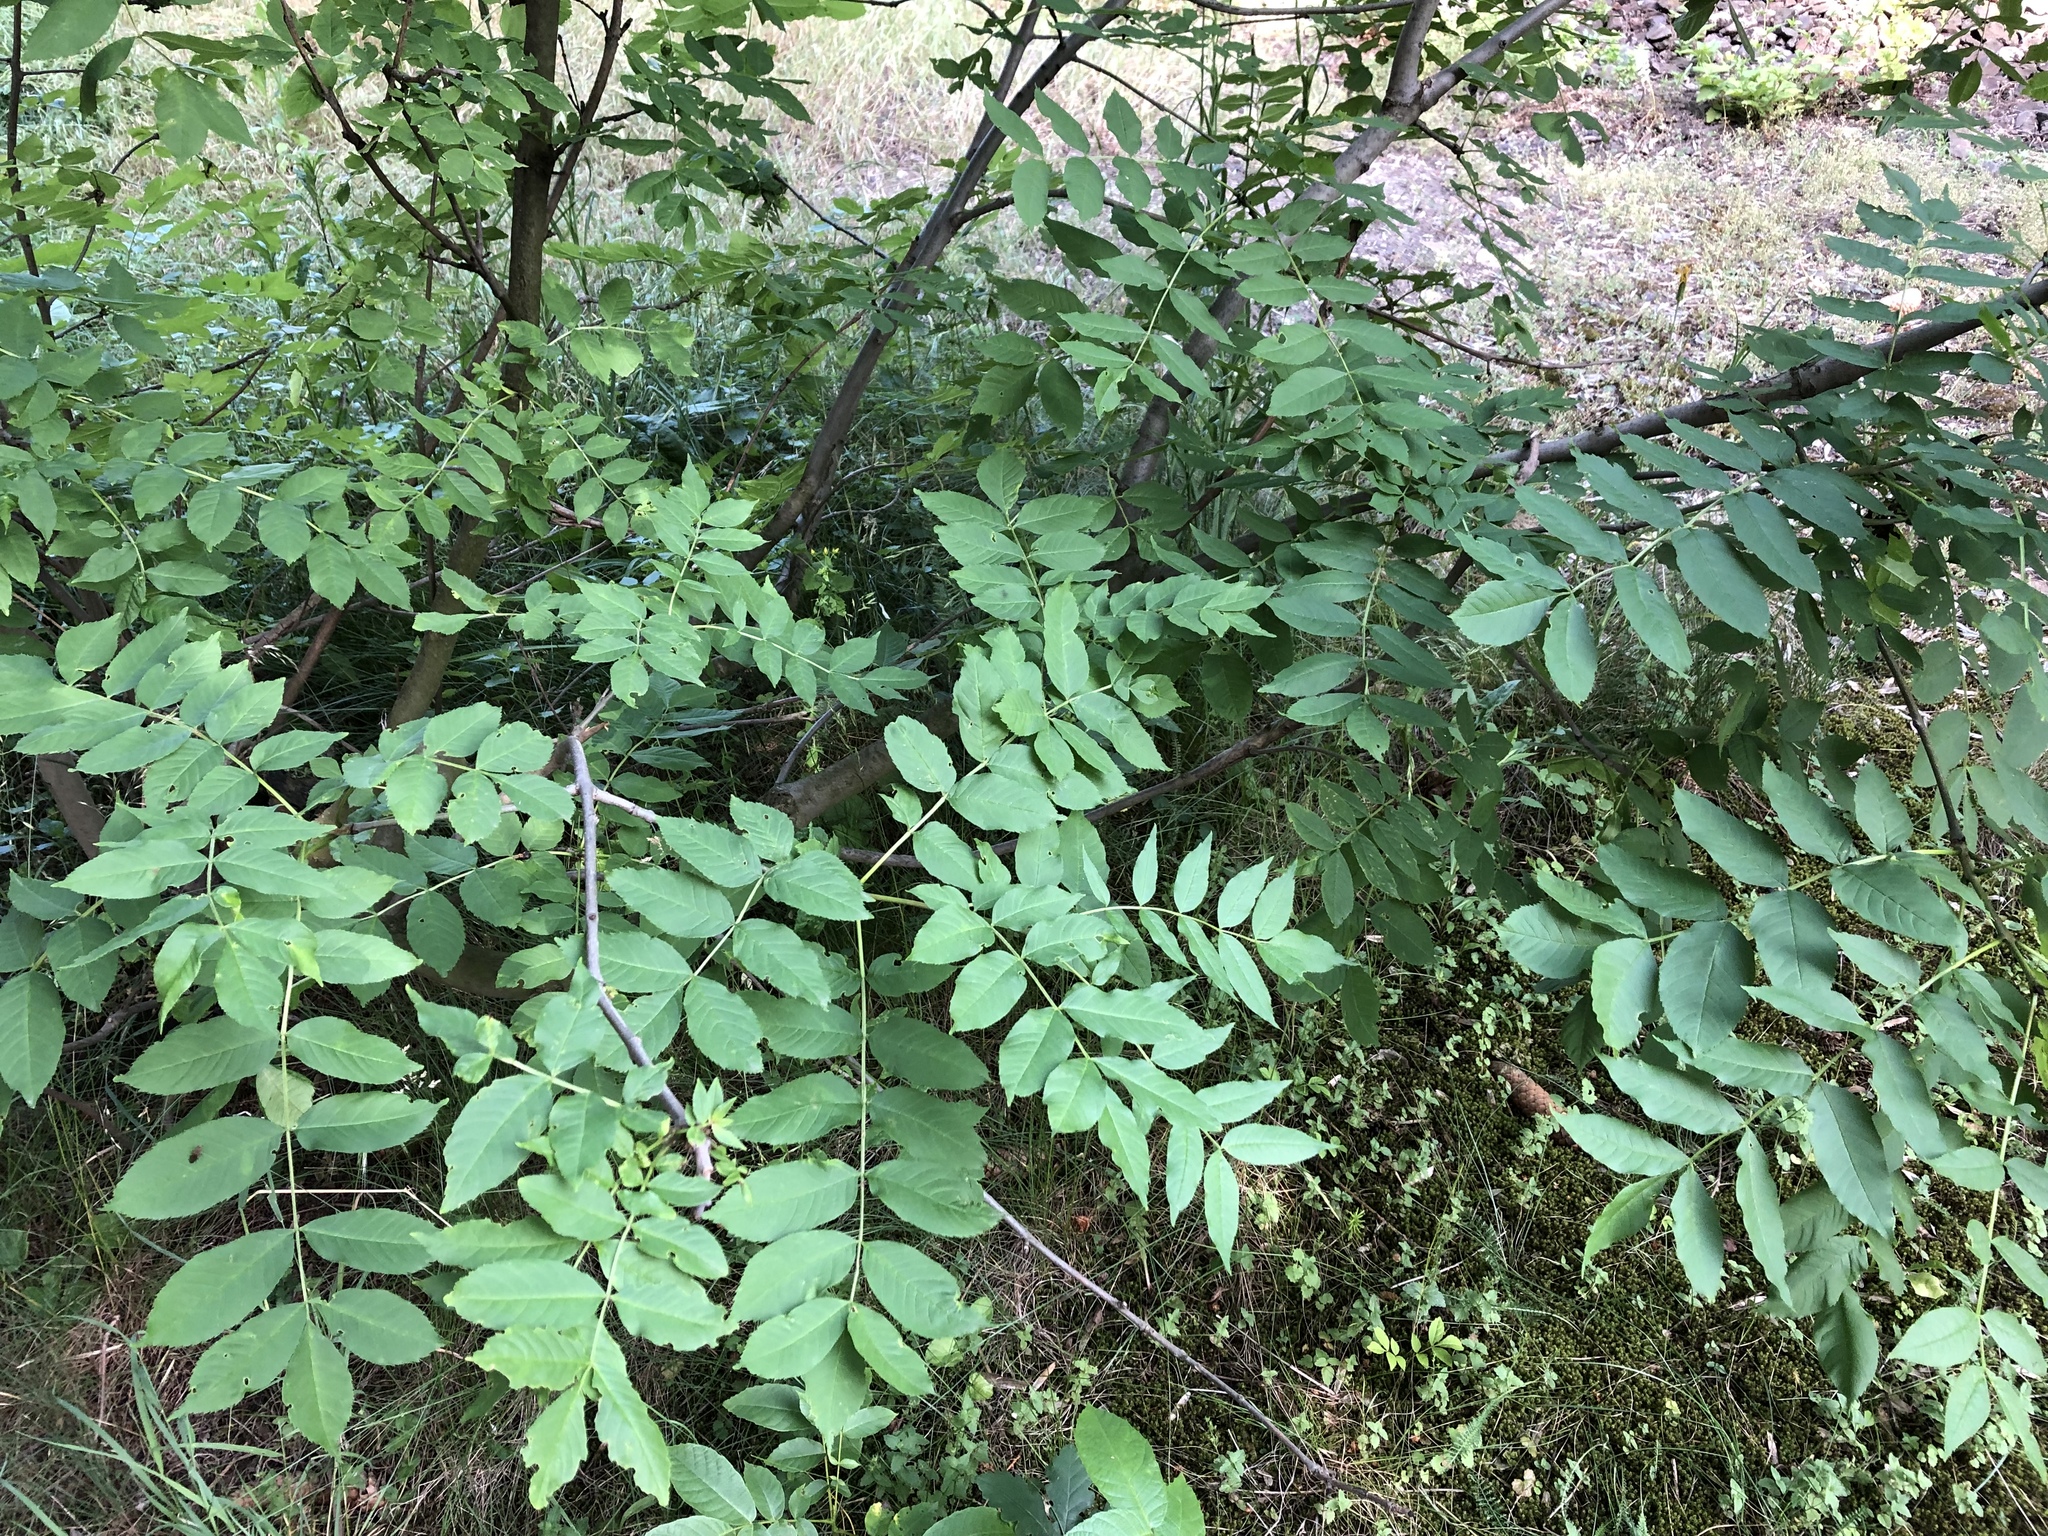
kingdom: Plantae
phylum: Tracheophyta
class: Magnoliopsida
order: Lamiales
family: Oleaceae
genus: Fraxinus
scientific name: Fraxinus excelsior
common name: European ash
